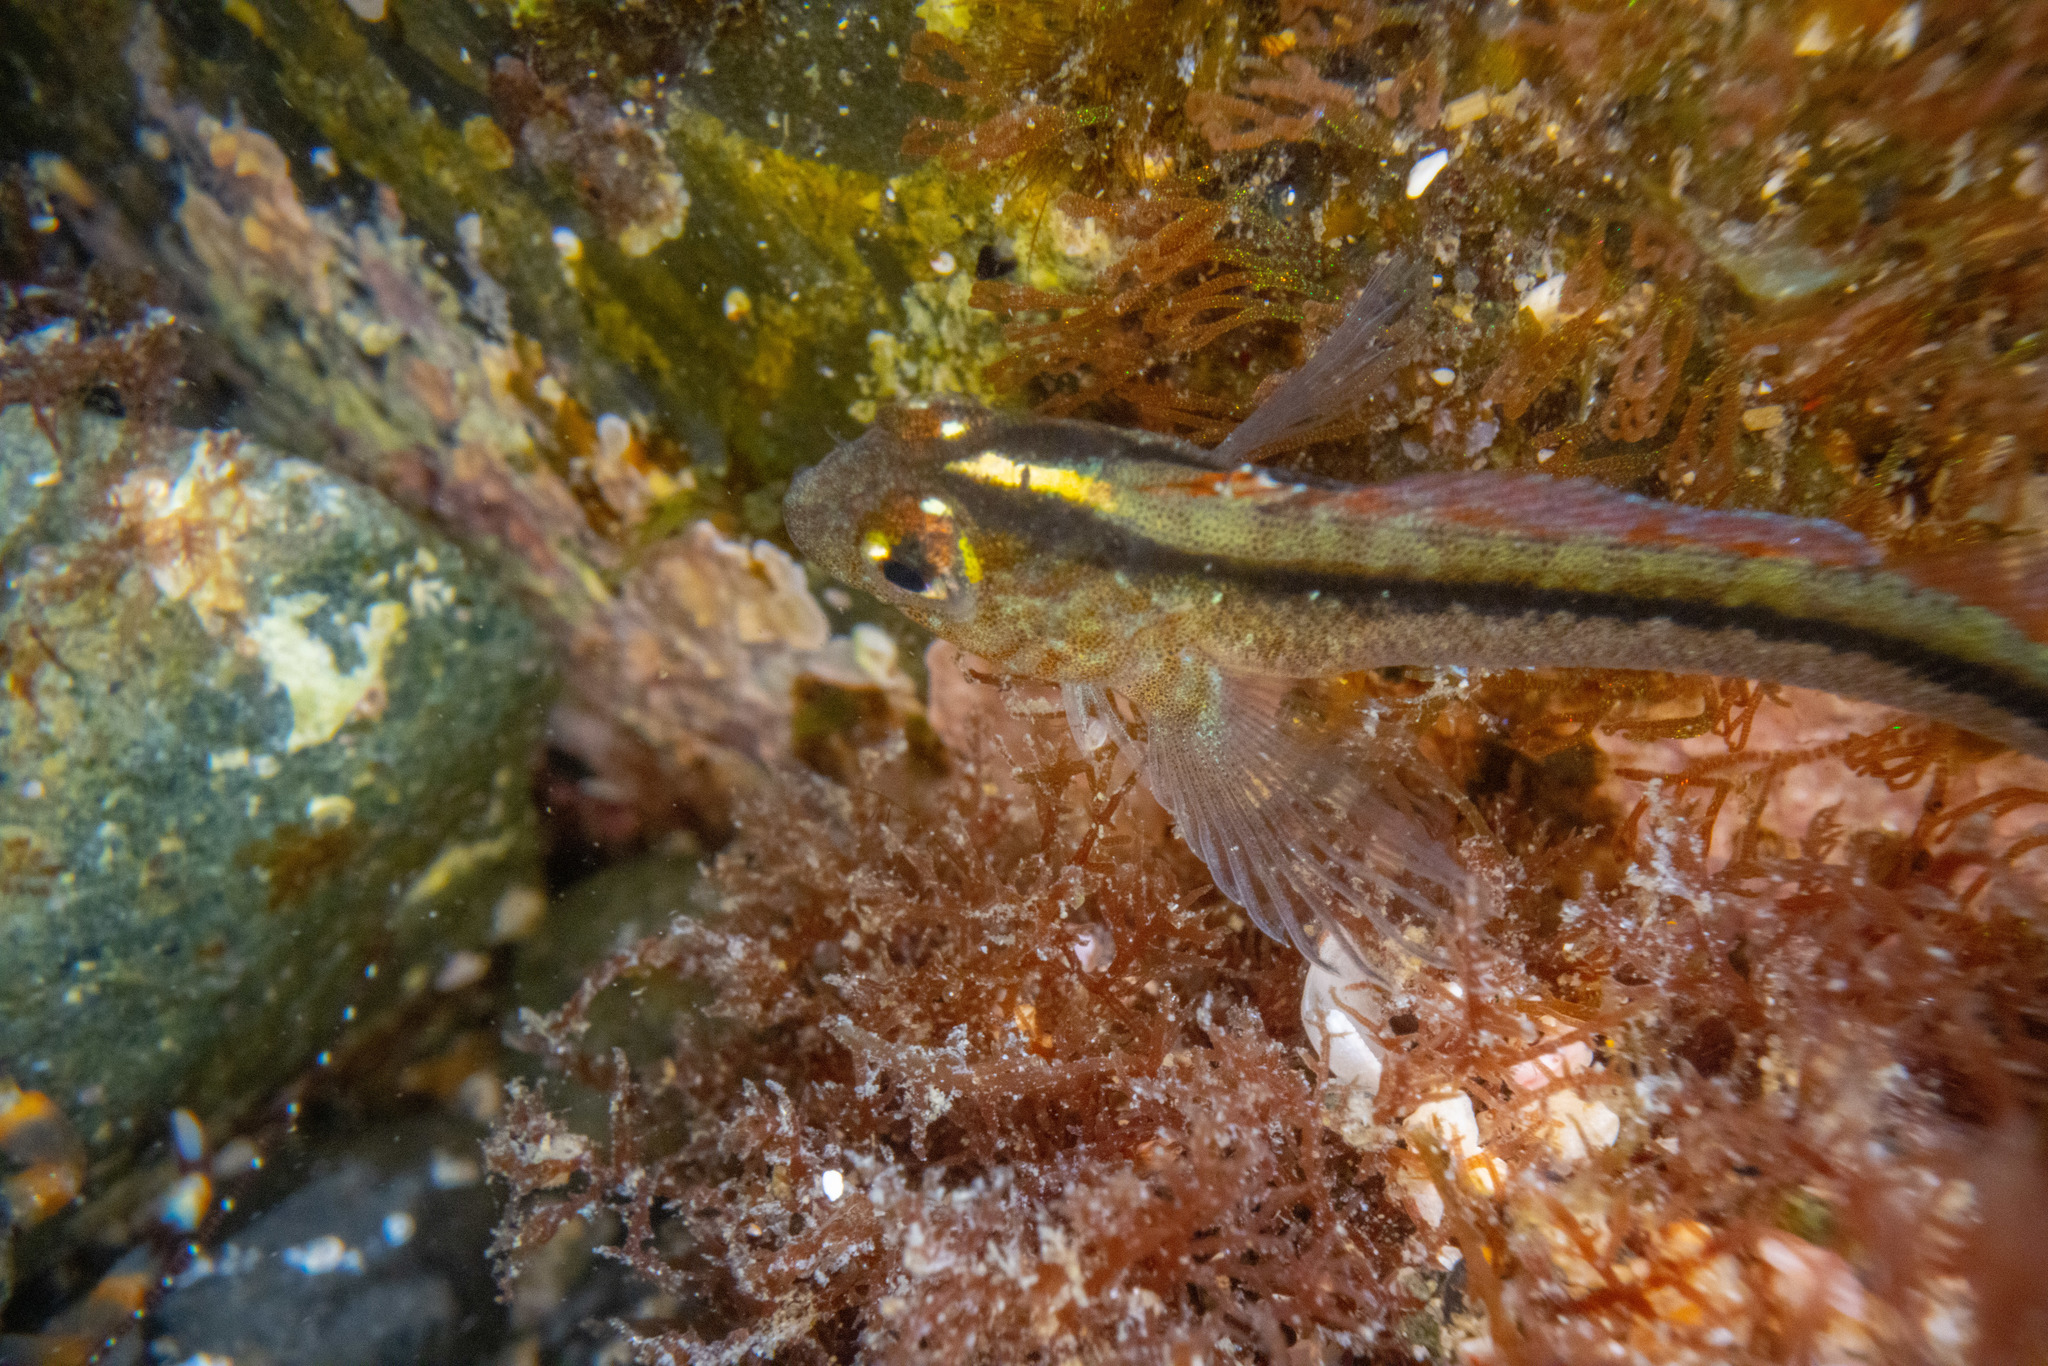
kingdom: Animalia
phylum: Chordata
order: Perciformes
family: Tripterygiidae
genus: Forsterygion
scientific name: Forsterygion lapillum
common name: Common triplefin
